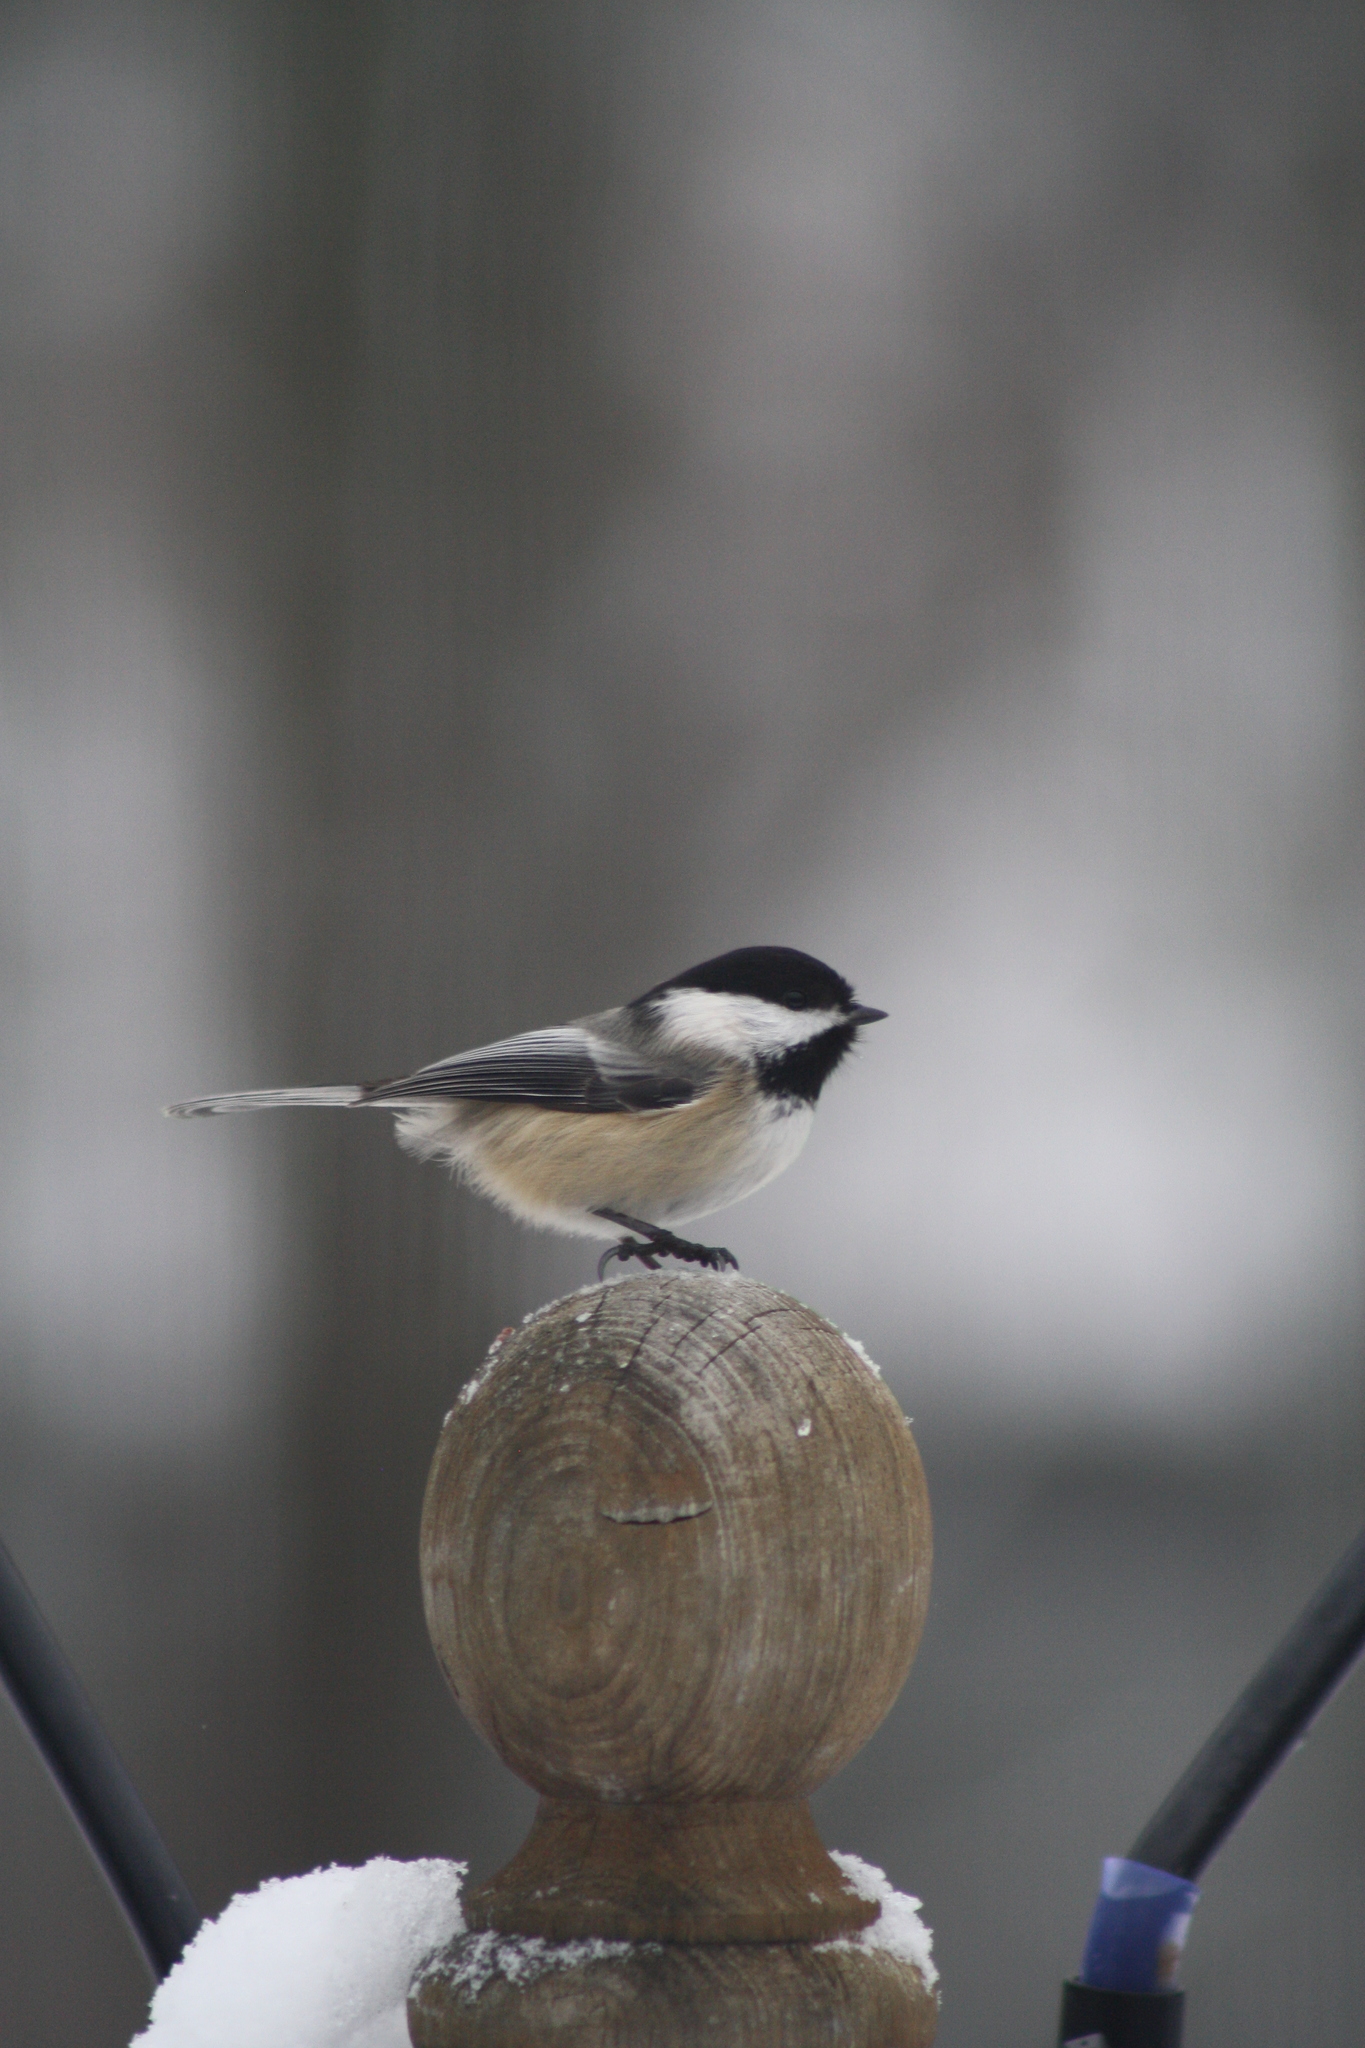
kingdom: Animalia
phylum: Chordata
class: Aves
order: Passeriformes
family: Paridae
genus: Poecile
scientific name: Poecile atricapillus
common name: Black-capped chickadee
